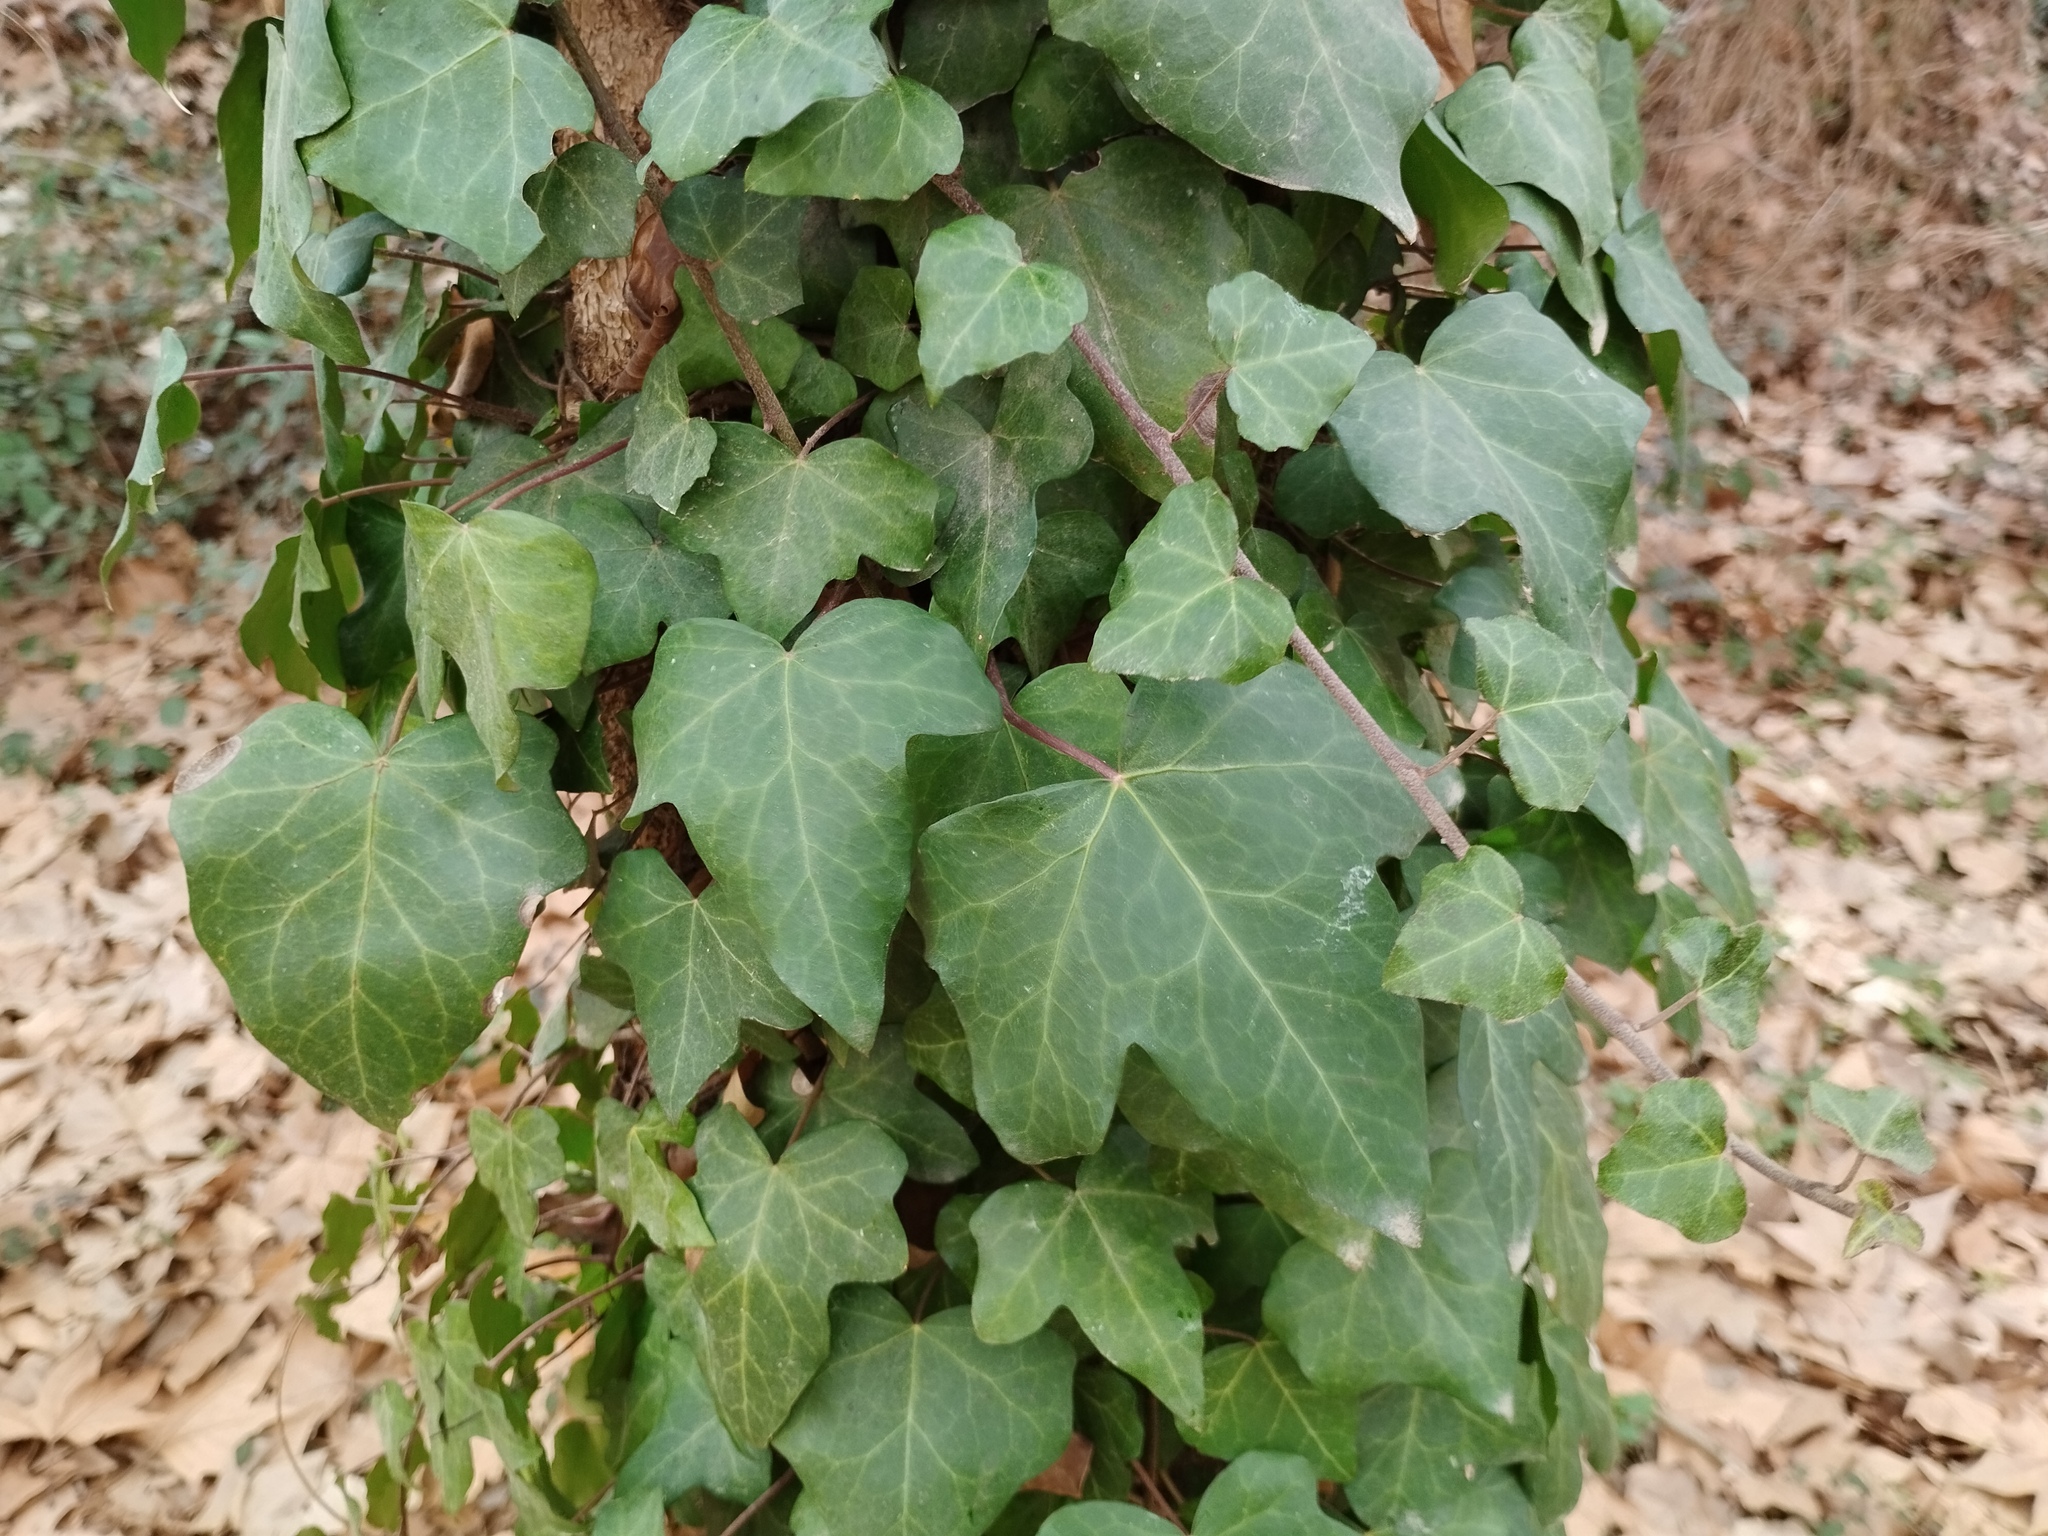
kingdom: Plantae
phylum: Tracheophyta
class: Magnoliopsida
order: Apiales
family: Araliaceae
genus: Hedera
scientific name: Hedera helix
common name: Ivy
